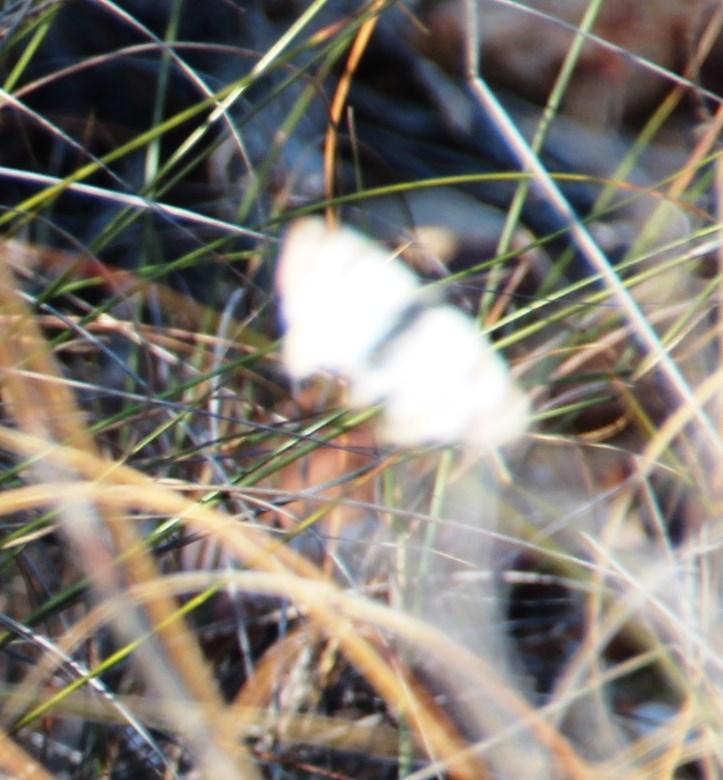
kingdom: Animalia
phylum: Arthropoda
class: Insecta
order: Lepidoptera
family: Pieridae
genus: Pontia
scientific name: Pontia helice
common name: Meadow white
